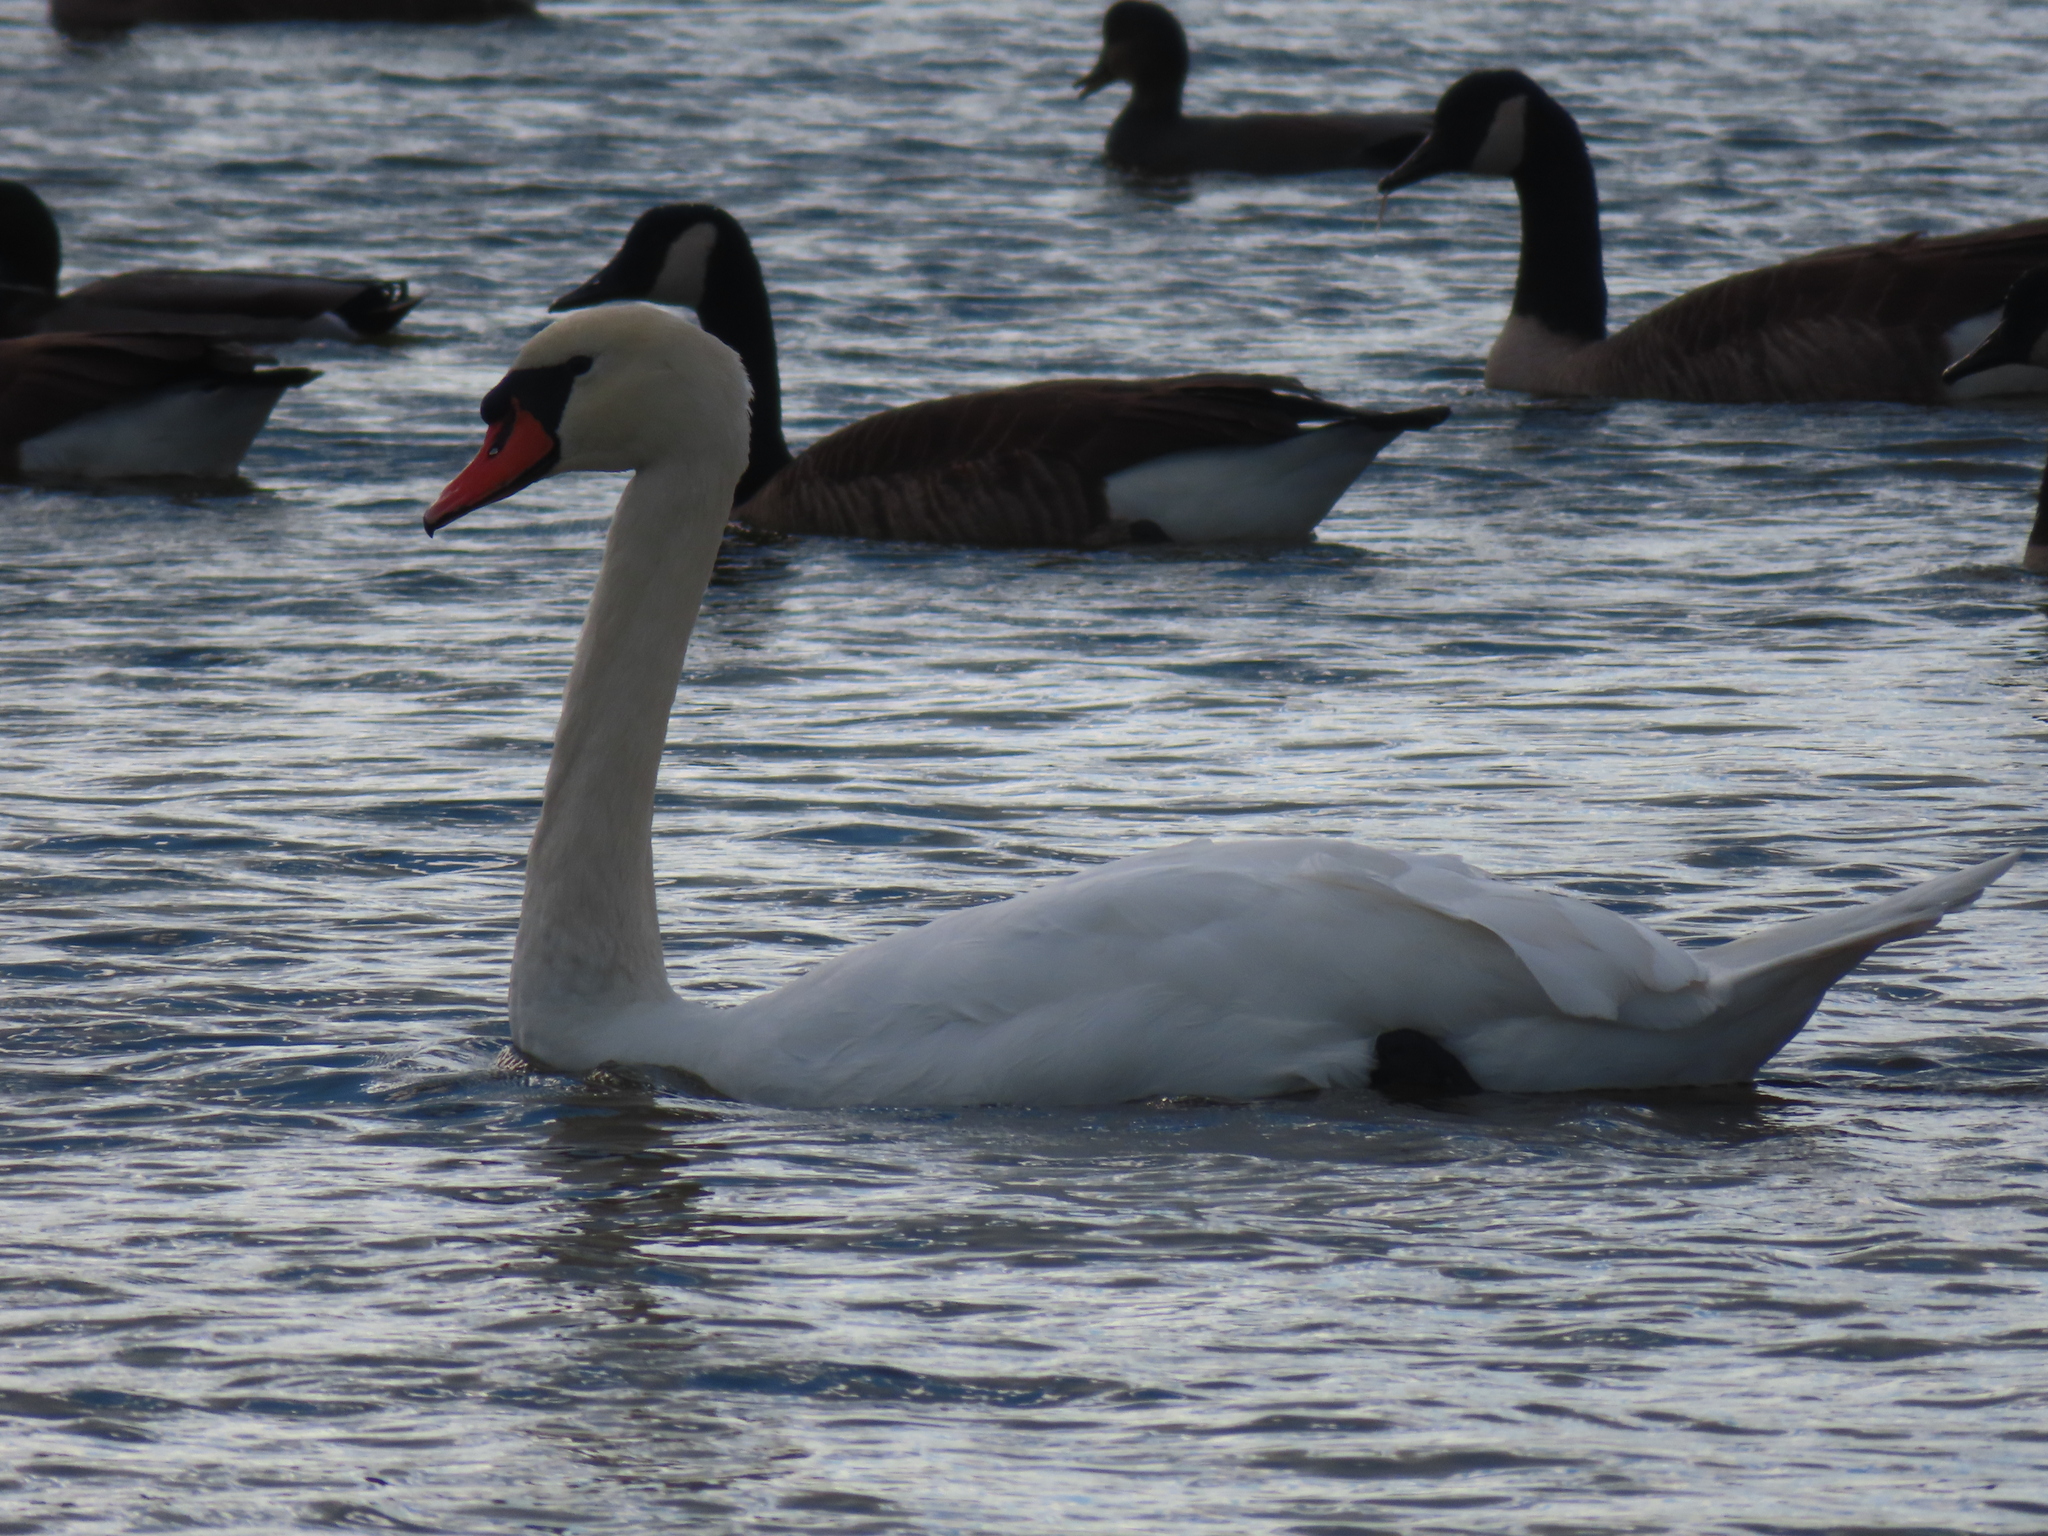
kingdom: Animalia
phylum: Chordata
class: Aves
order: Anseriformes
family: Anatidae
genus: Cygnus
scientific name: Cygnus olor
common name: Mute swan
